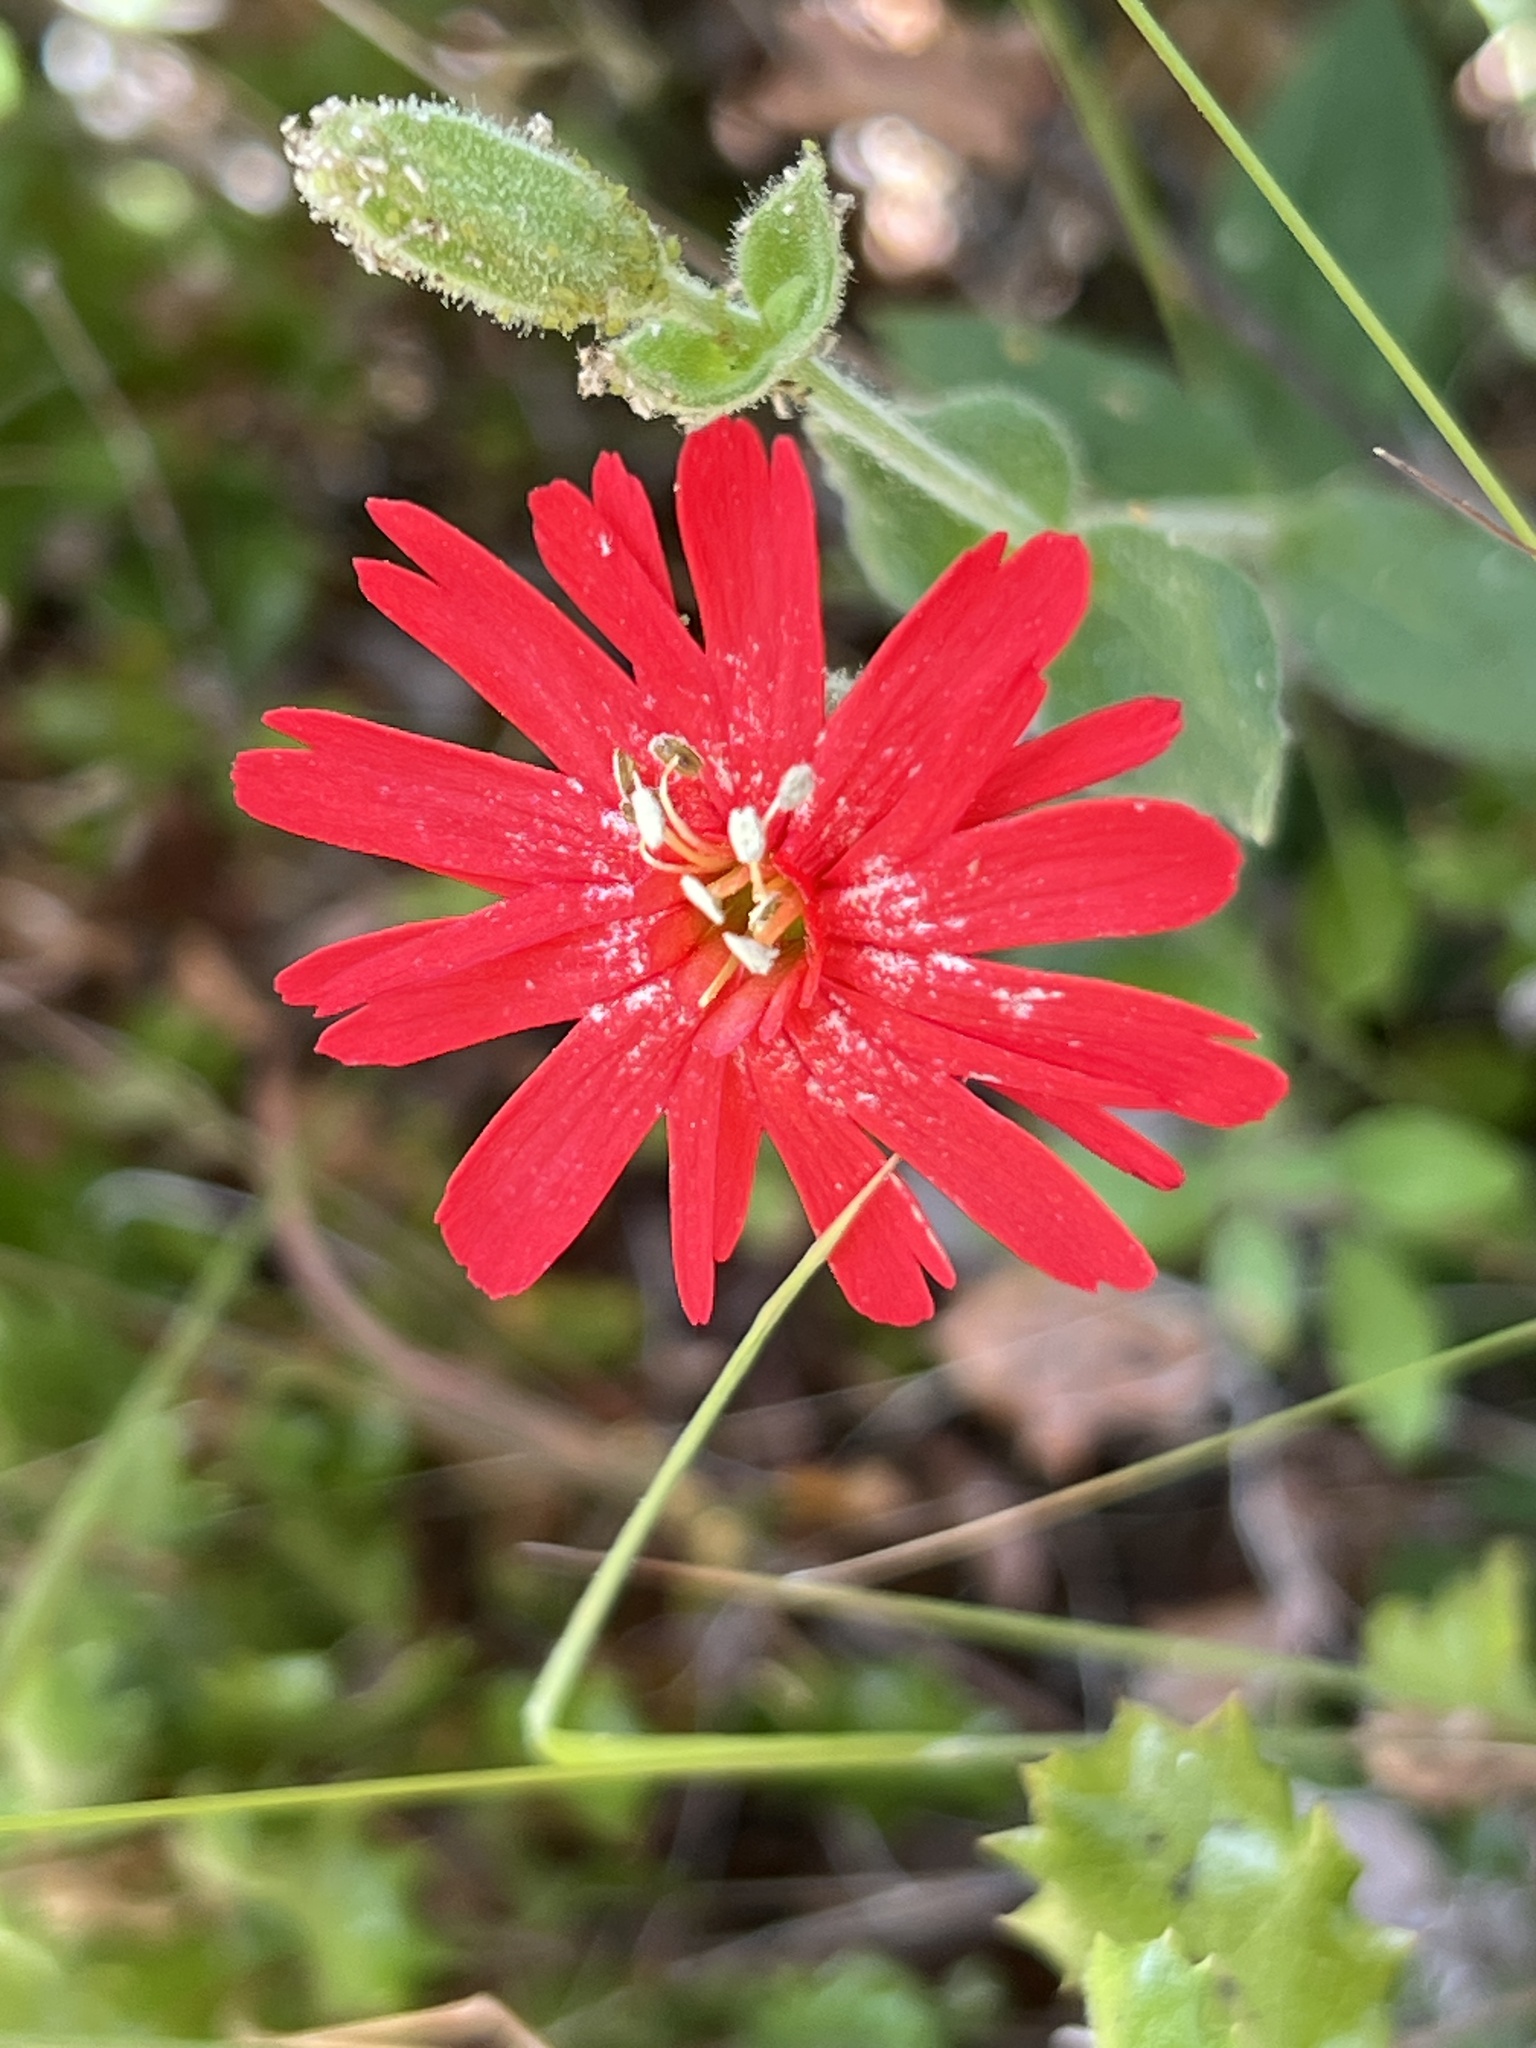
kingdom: Plantae
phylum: Tracheophyta
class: Magnoliopsida
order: Caryophyllales
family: Caryophyllaceae
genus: Silene
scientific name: Silene laciniata
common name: Indian-pink
